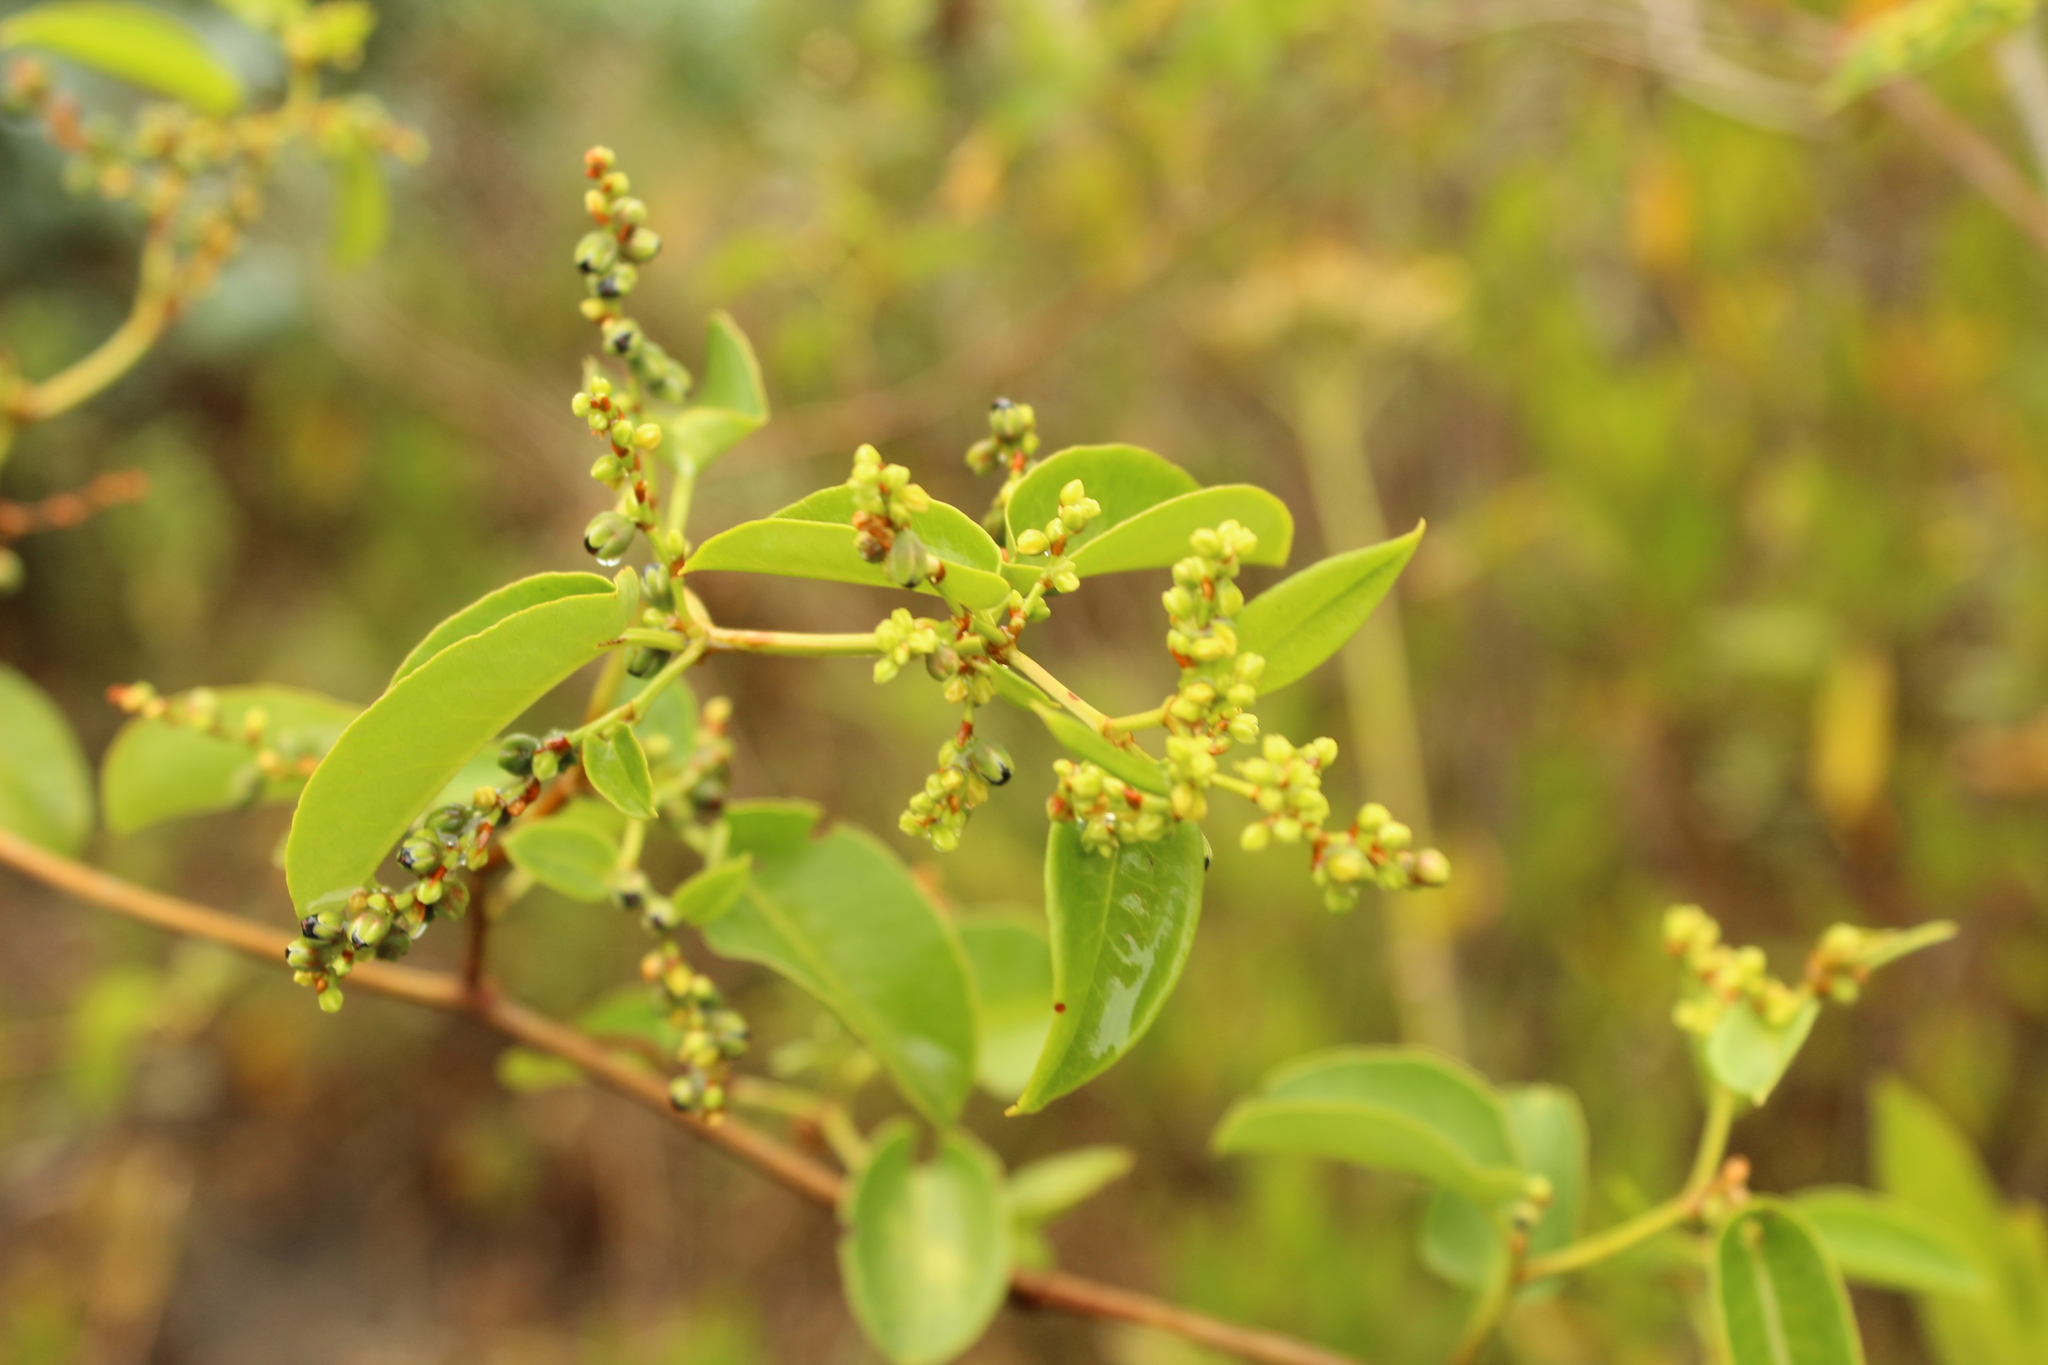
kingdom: Plantae
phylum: Tracheophyta
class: Magnoliopsida
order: Caryophyllales
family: Polygonaceae
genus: Muehlenbeckia
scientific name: Muehlenbeckia tamnifolia
